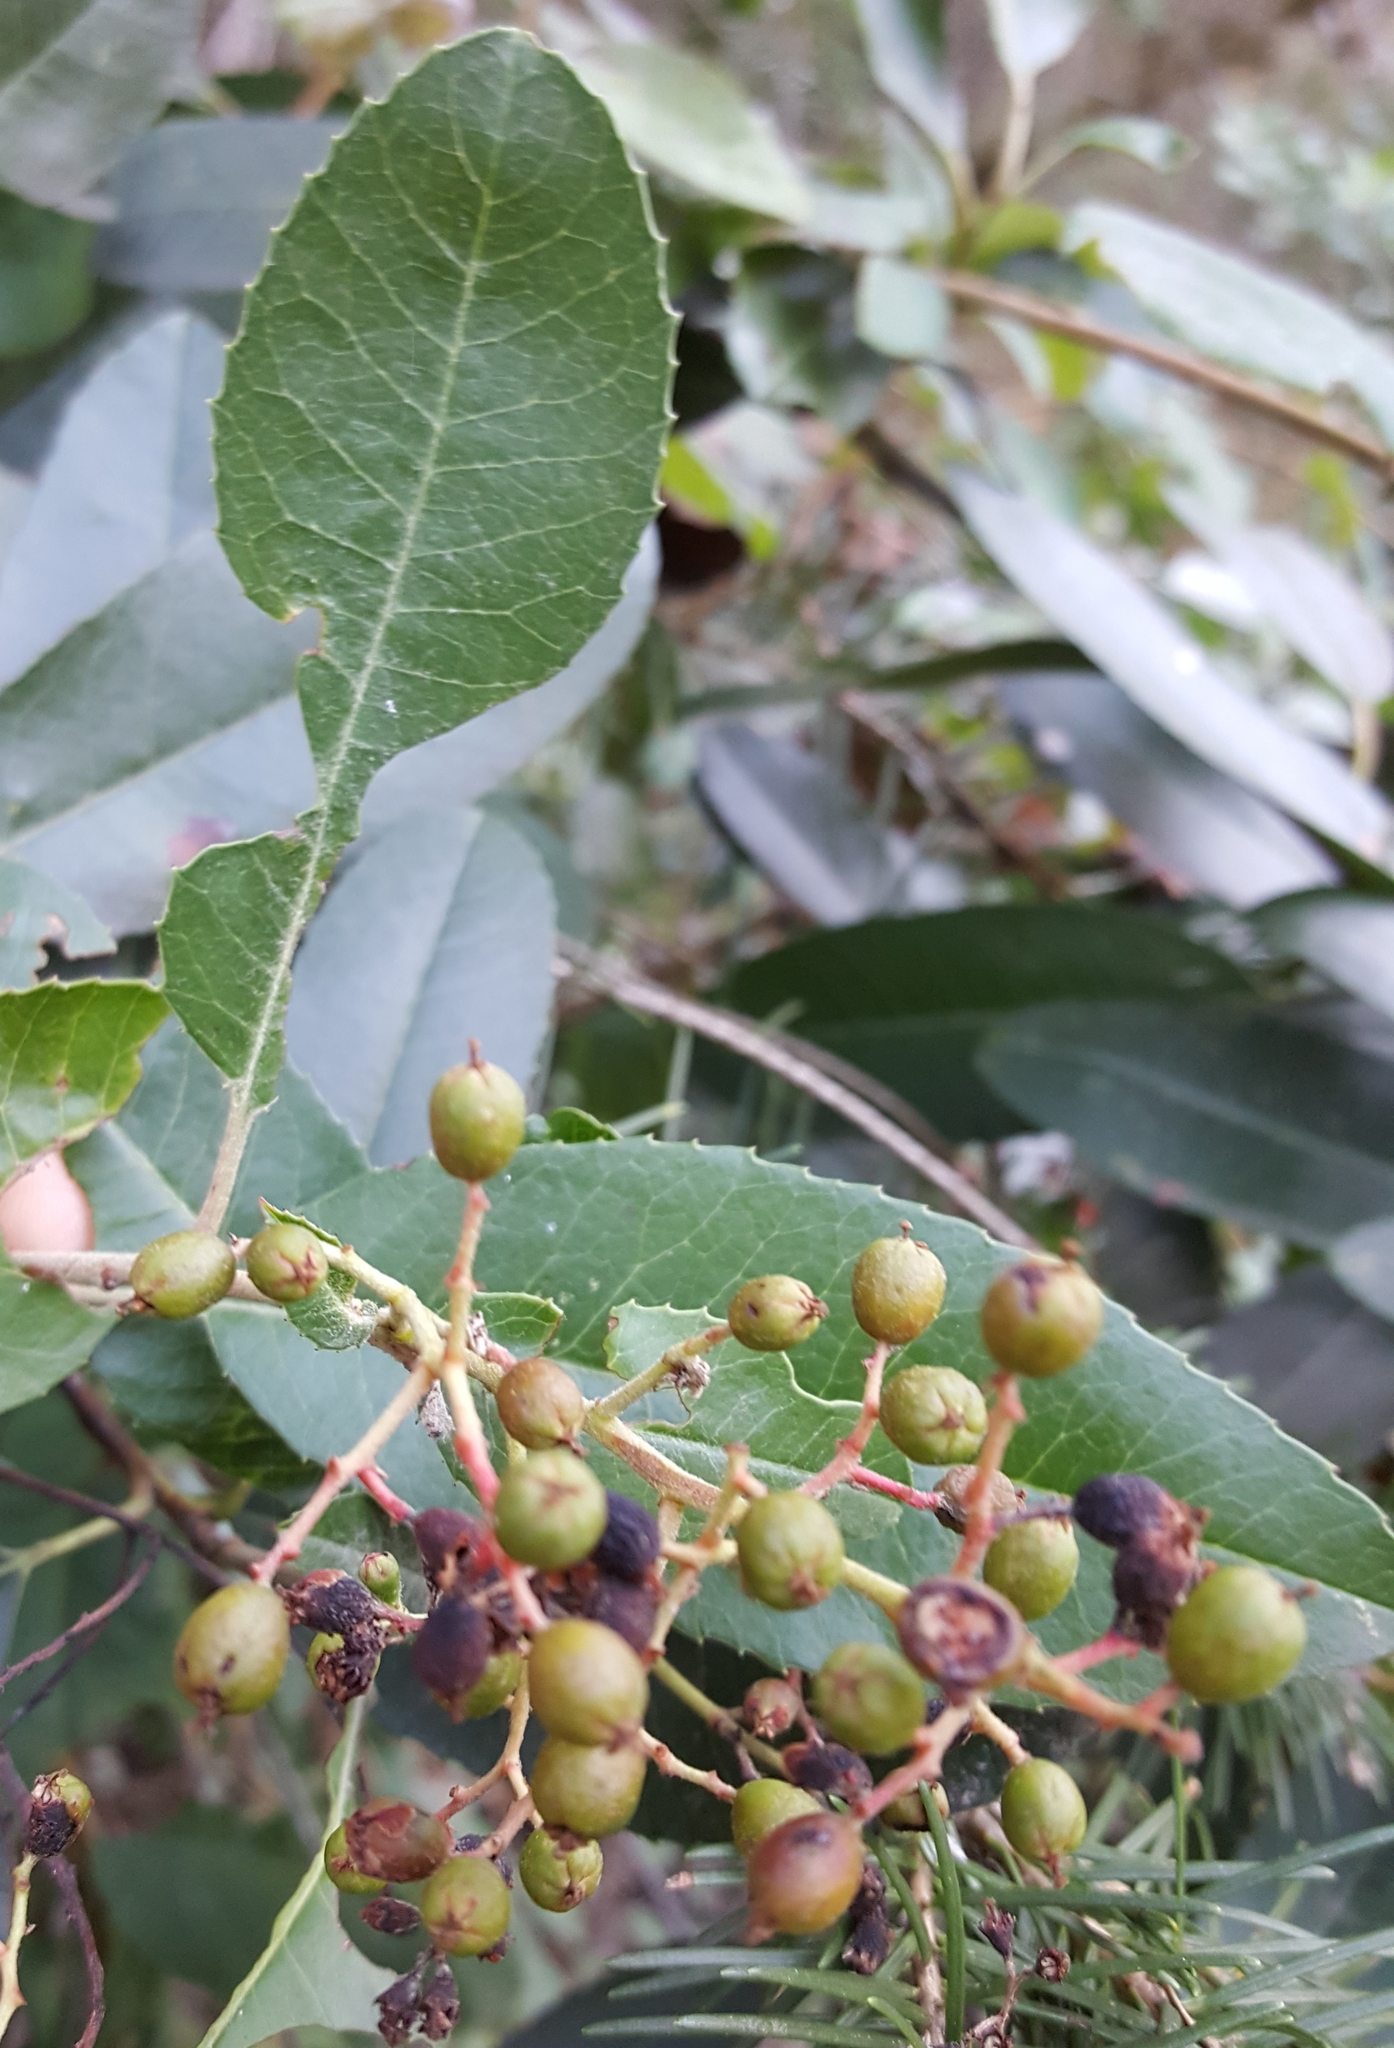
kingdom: Plantae
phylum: Tracheophyta
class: Magnoliopsida
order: Rosales
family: Rosaceae
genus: Heteromeles
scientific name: Heteromeles arbutifolia
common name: California-holly
